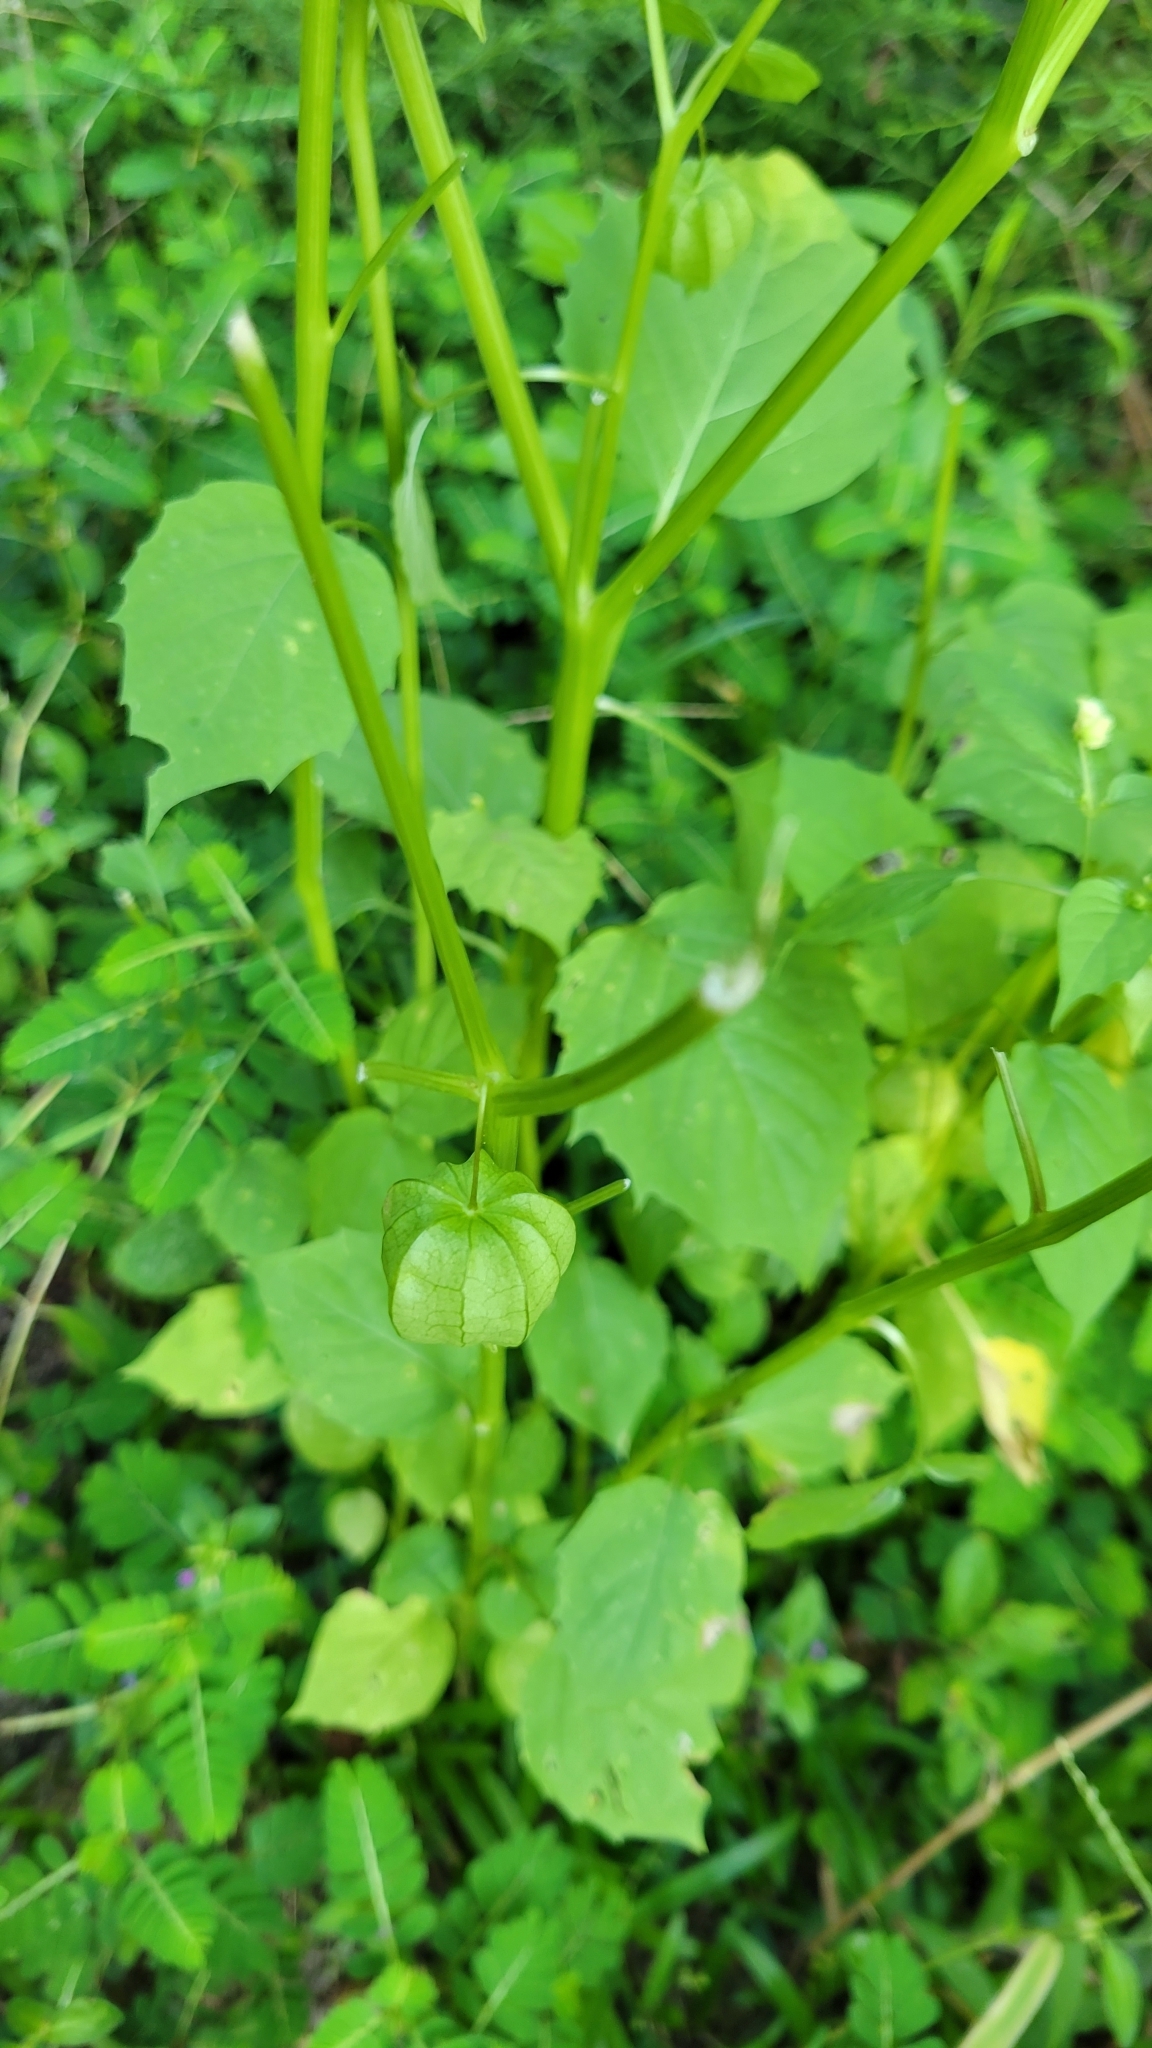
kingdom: Plantae
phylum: Tracheophyta
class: Magnoliopsida
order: Solanales
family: Solanaceae
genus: Physalis
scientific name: Physalis angulata
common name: Angular winter-cherry
